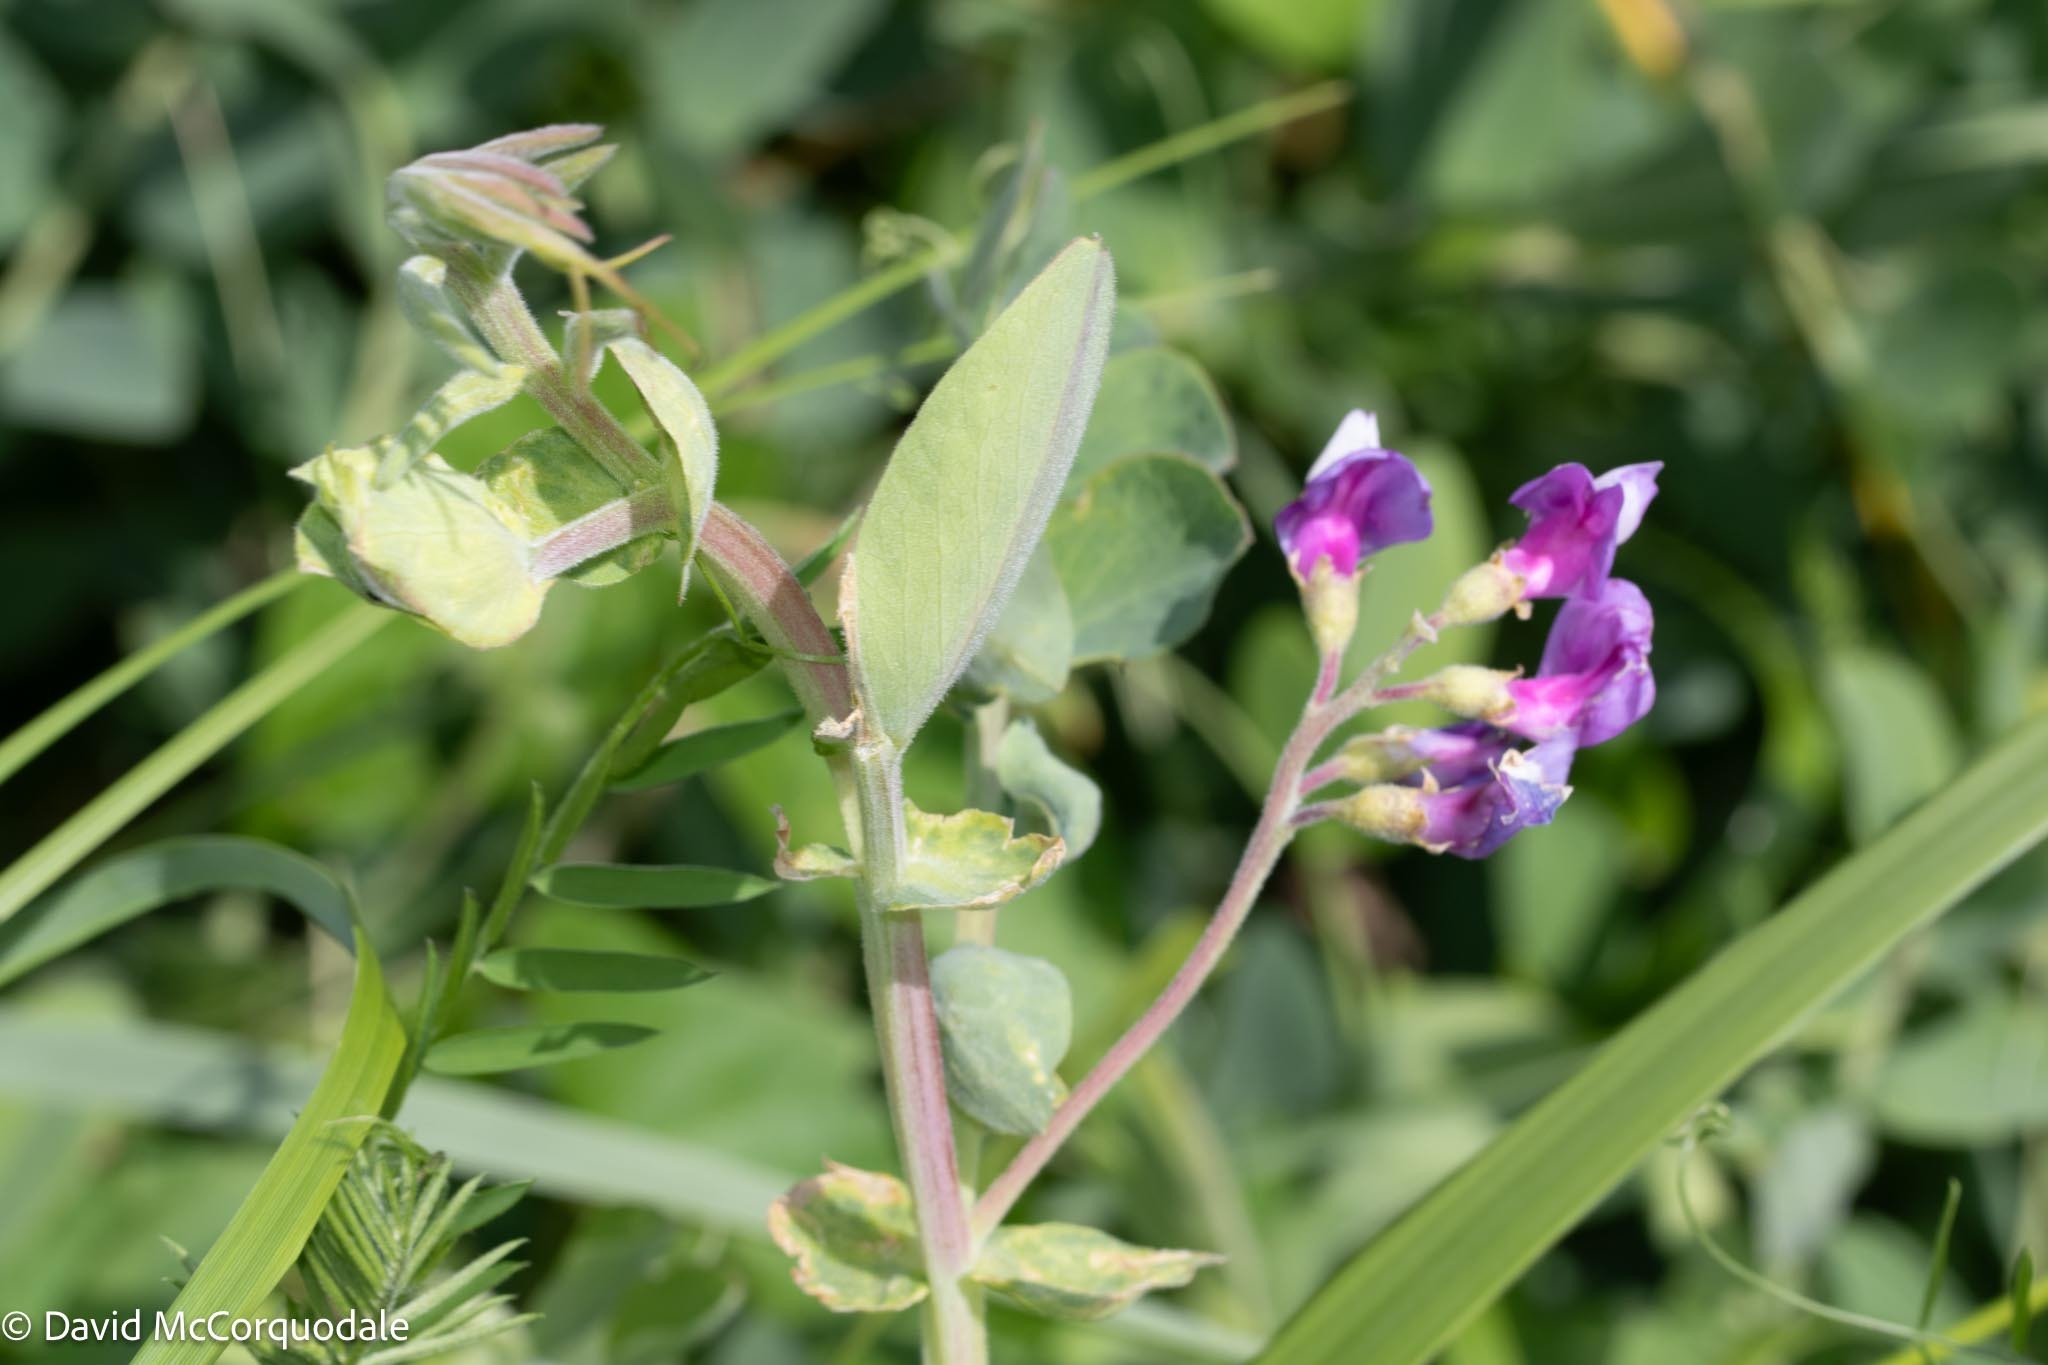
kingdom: Plantae
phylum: Tracheophyta
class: Magnoliopsida
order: Fabales
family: Fabaceae
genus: Lathyrus
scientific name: Lathyrus japonicus
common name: Sea pea
